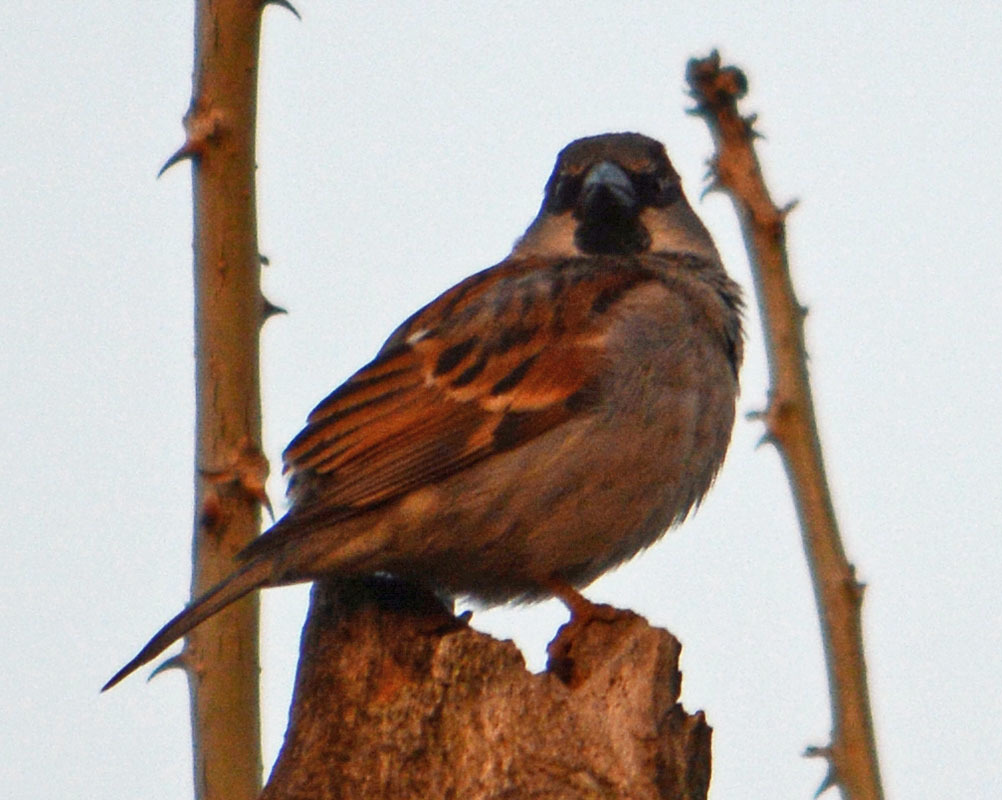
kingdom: Animalia
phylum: Chordata
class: Aves
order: Passeriformes
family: Passeridae
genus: Passer
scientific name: Passer domesticus
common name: House sparrow
